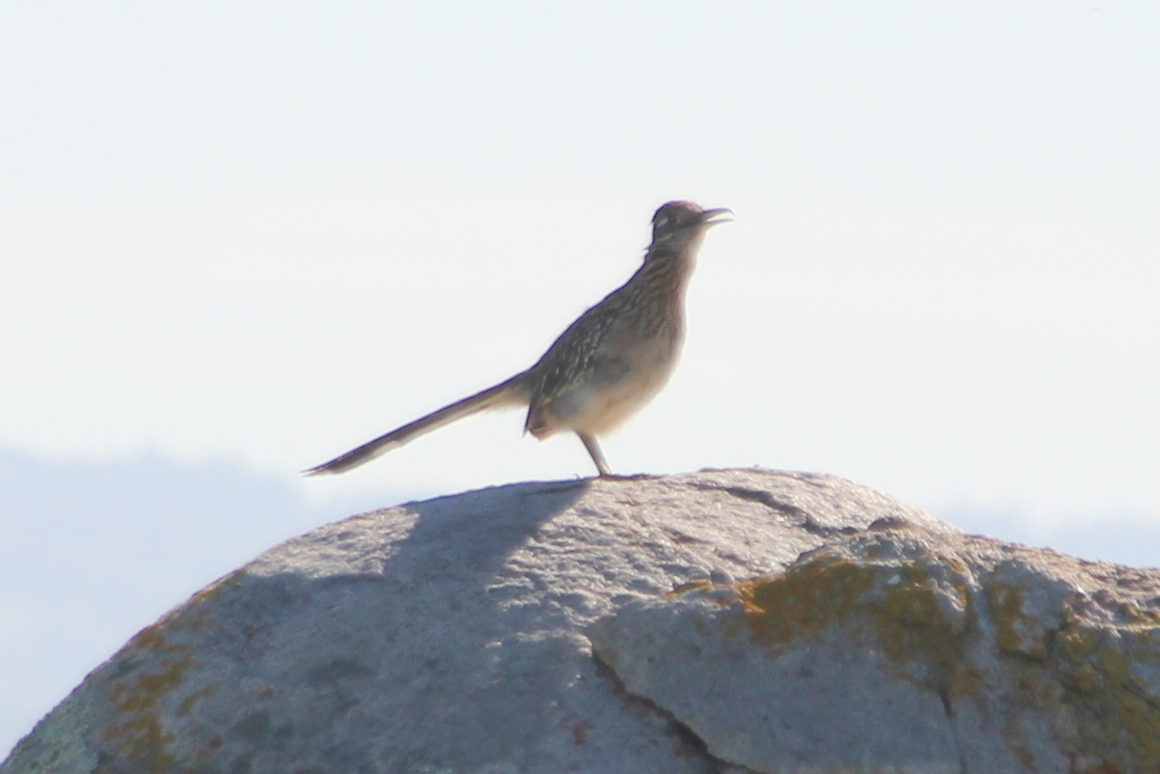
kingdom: Animalia
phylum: Chordata
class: Aves
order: Cuculiformes
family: Cuculidae
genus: Geococcyx
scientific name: Geococcyx californianus
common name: Greater roadrunner
